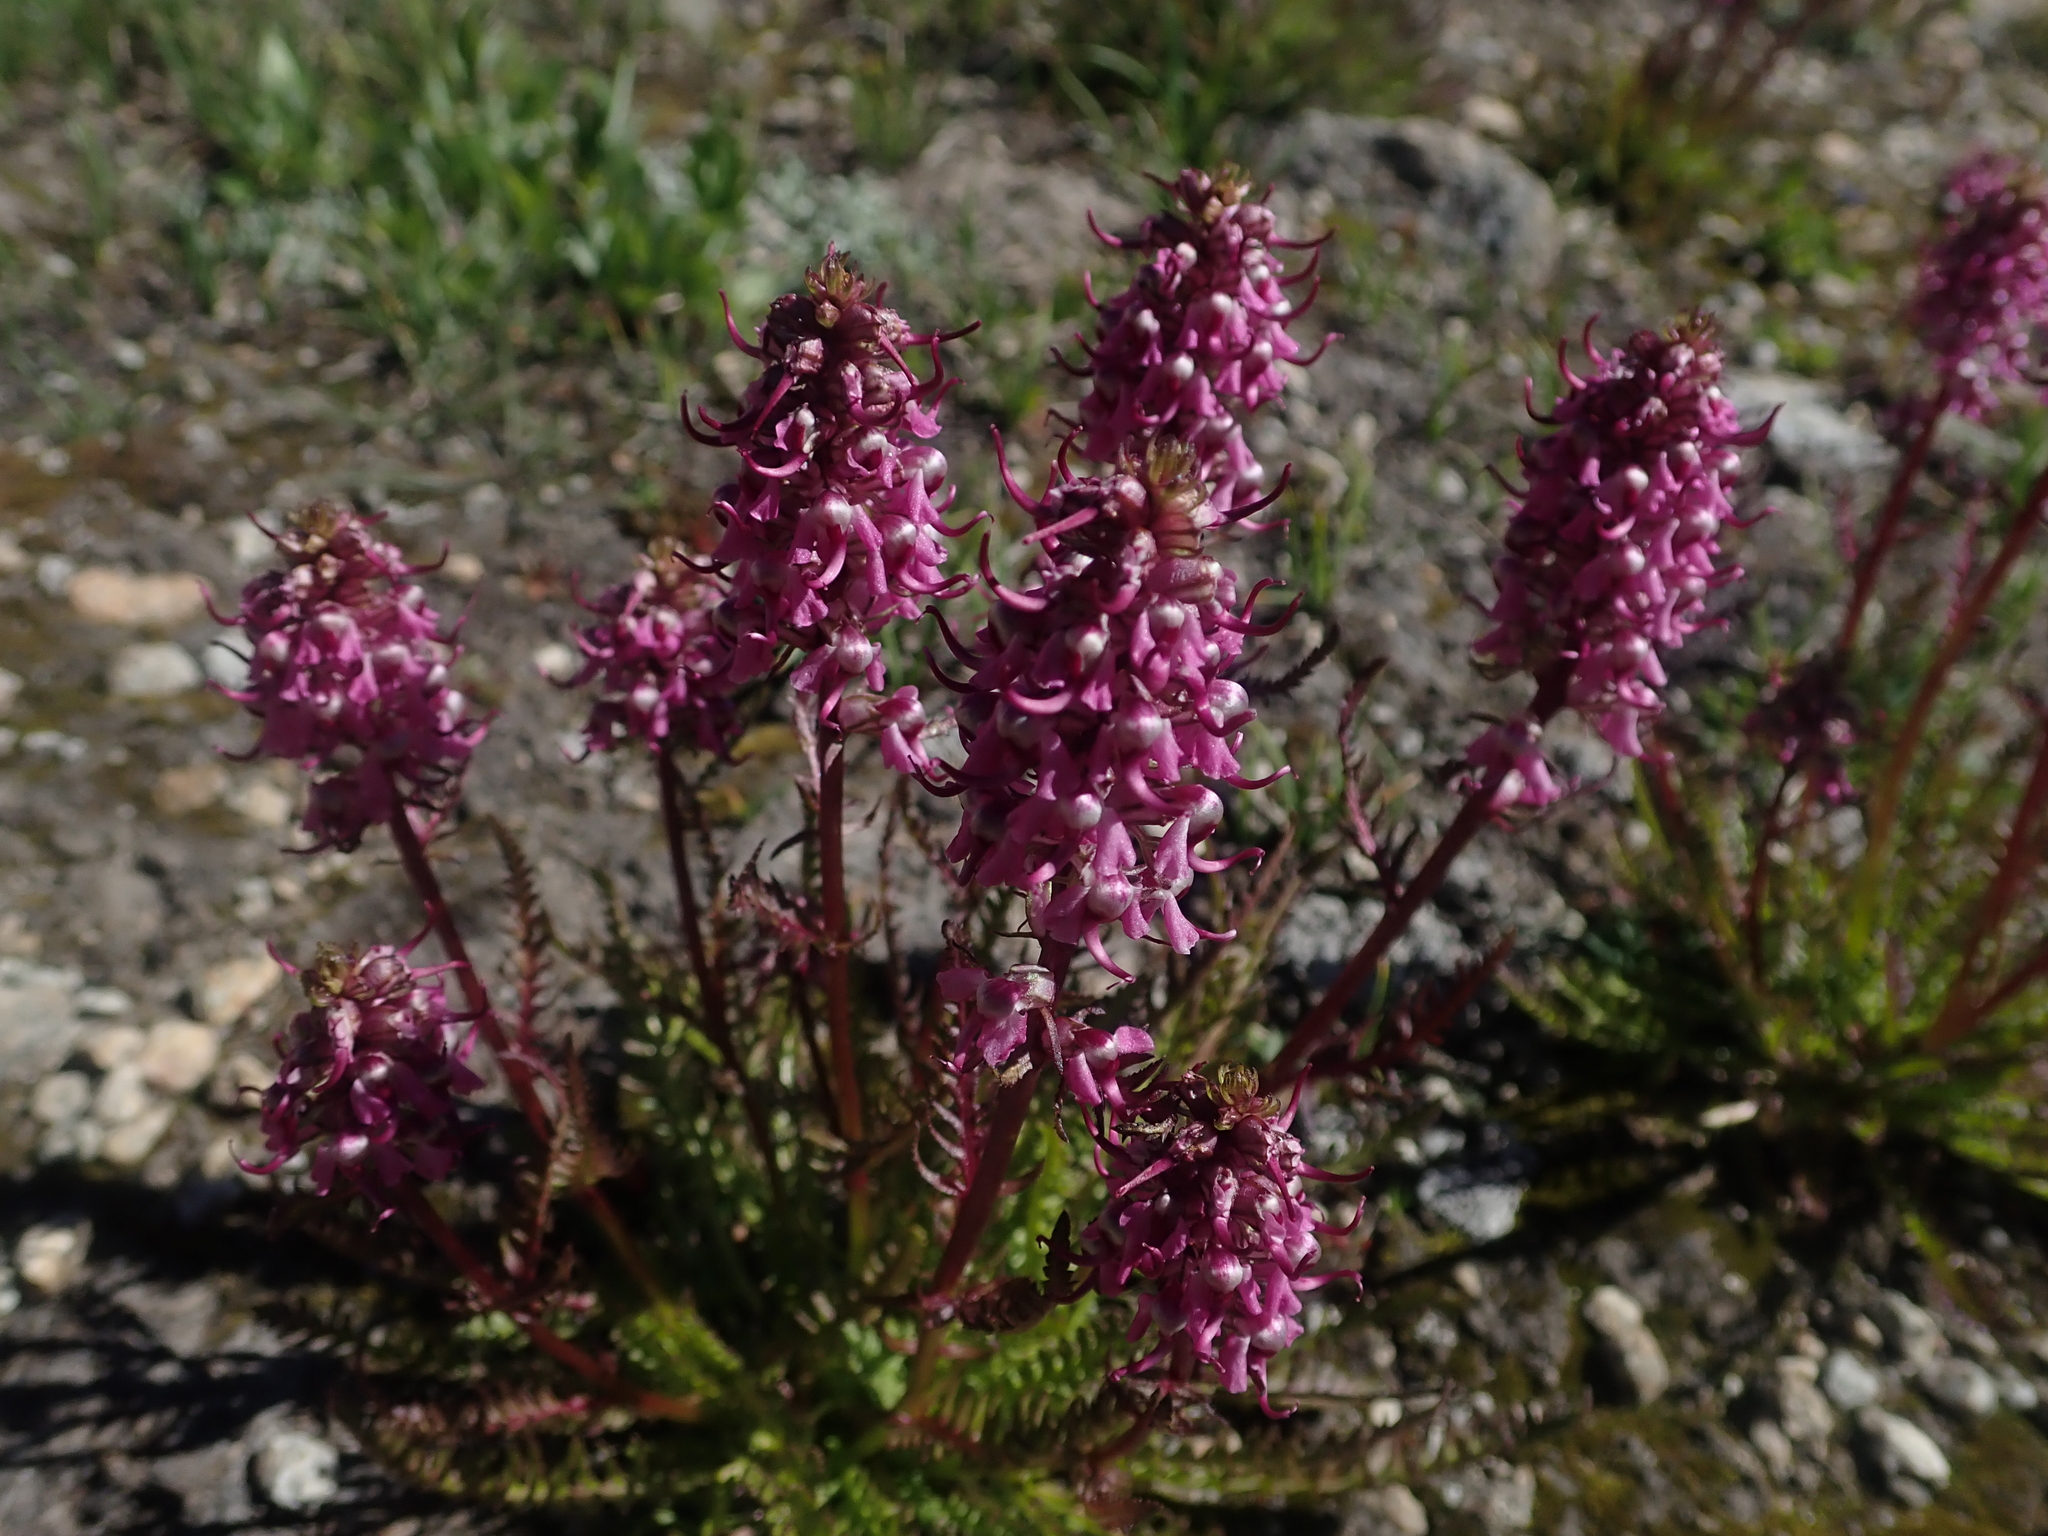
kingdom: Plantae
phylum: Tracheophyta
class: Magnoliopsida
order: Lamiales
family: Orobanchaceae
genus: Pedicularis
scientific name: Pedicularis groenlandica
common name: Elephant's-head
